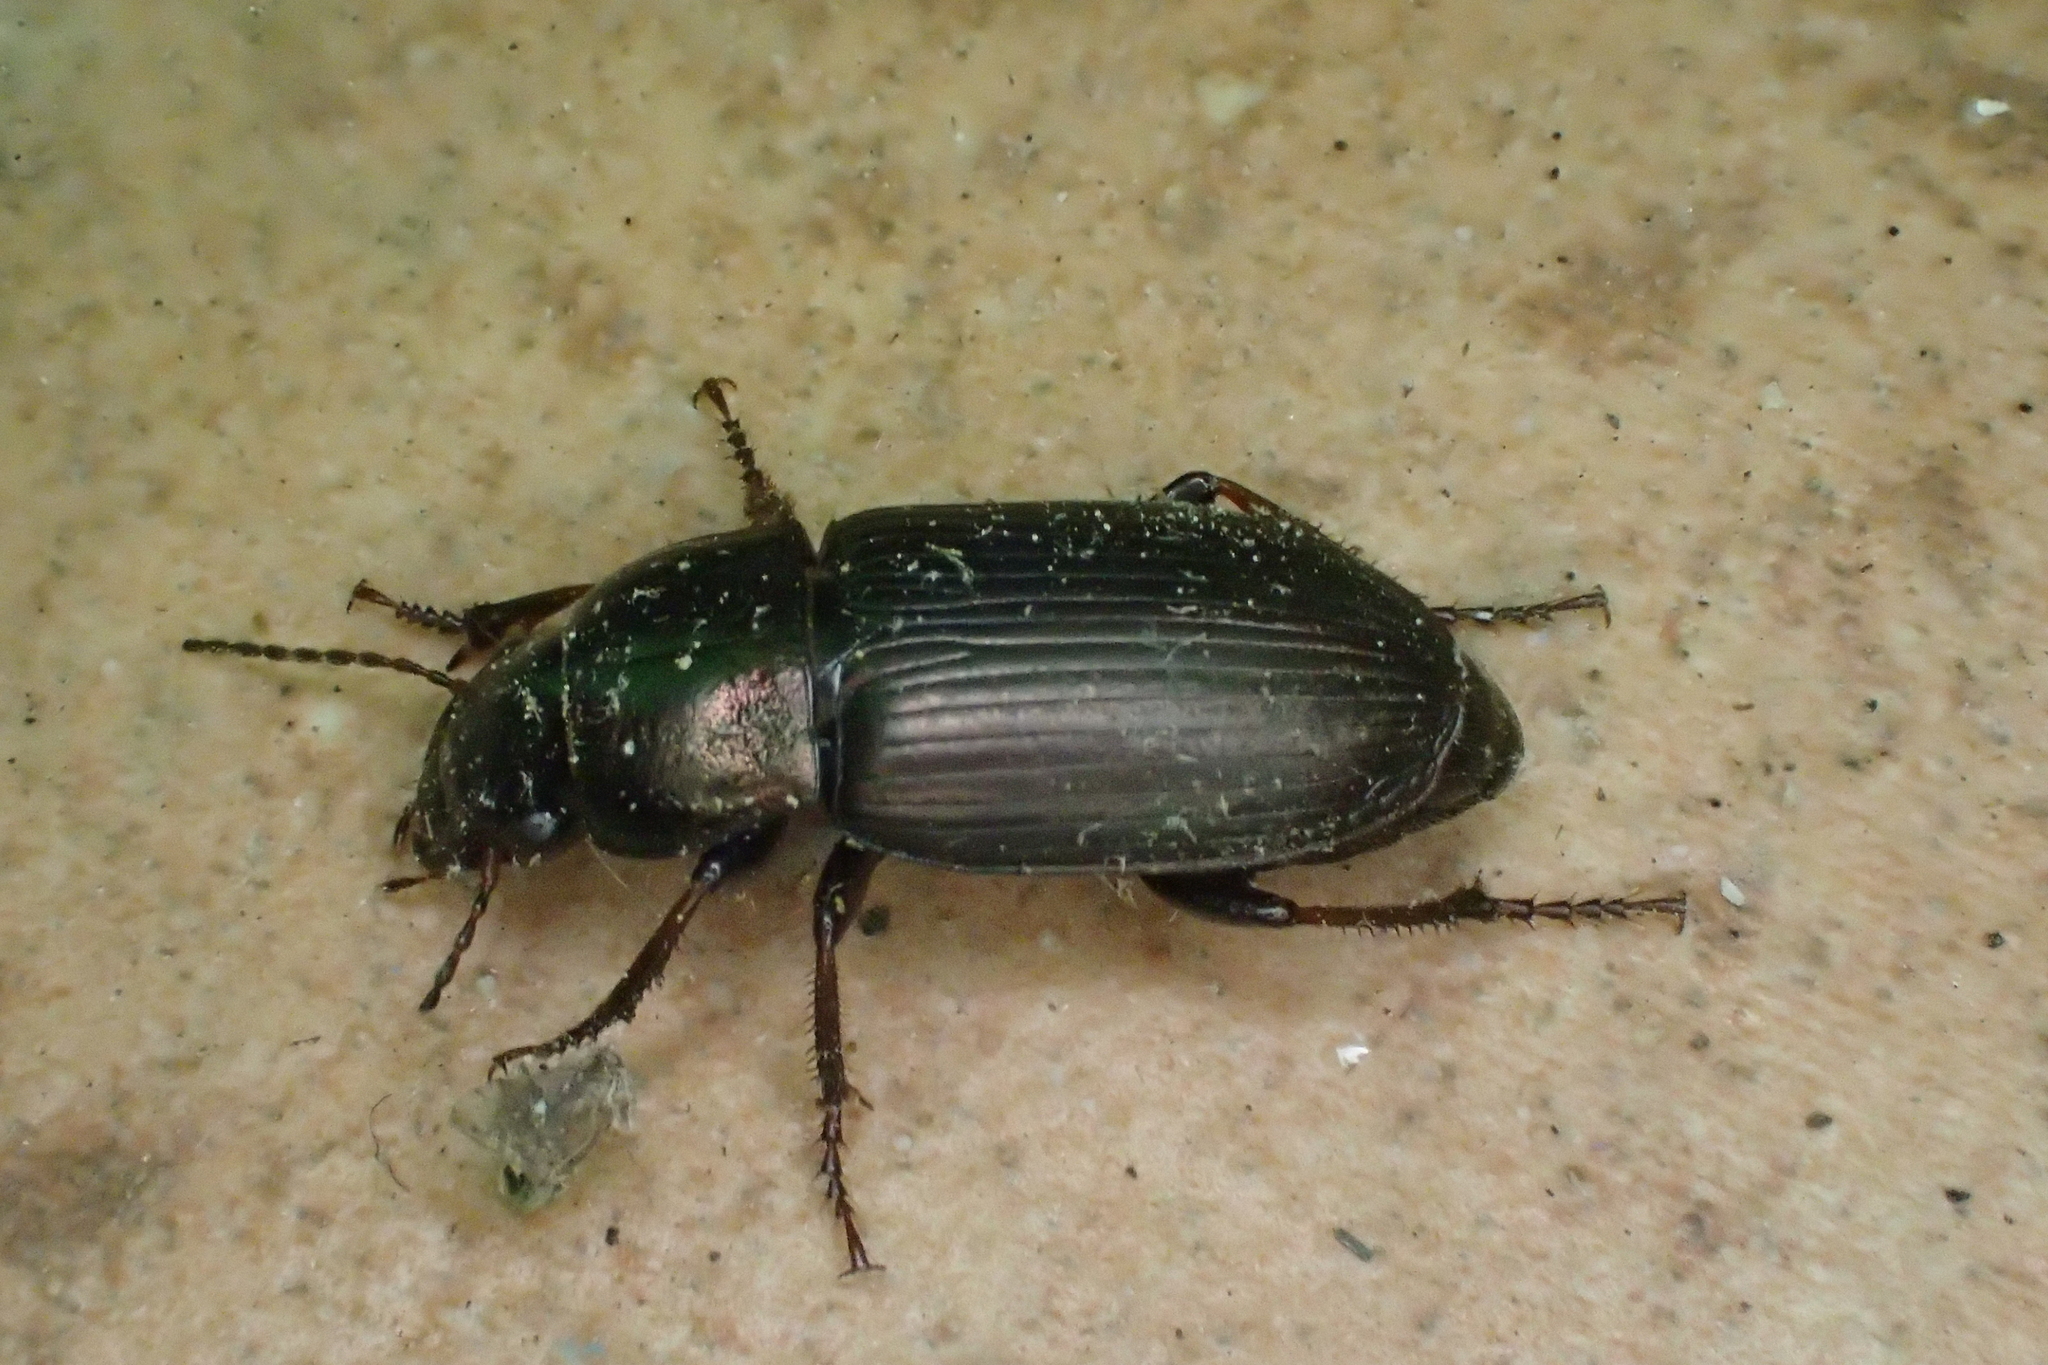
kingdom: Animalia
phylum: Arthropoda
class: Insecta
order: Coleoptera
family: Carabidae
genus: Harpalus
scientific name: Harpalus dimidiatus
